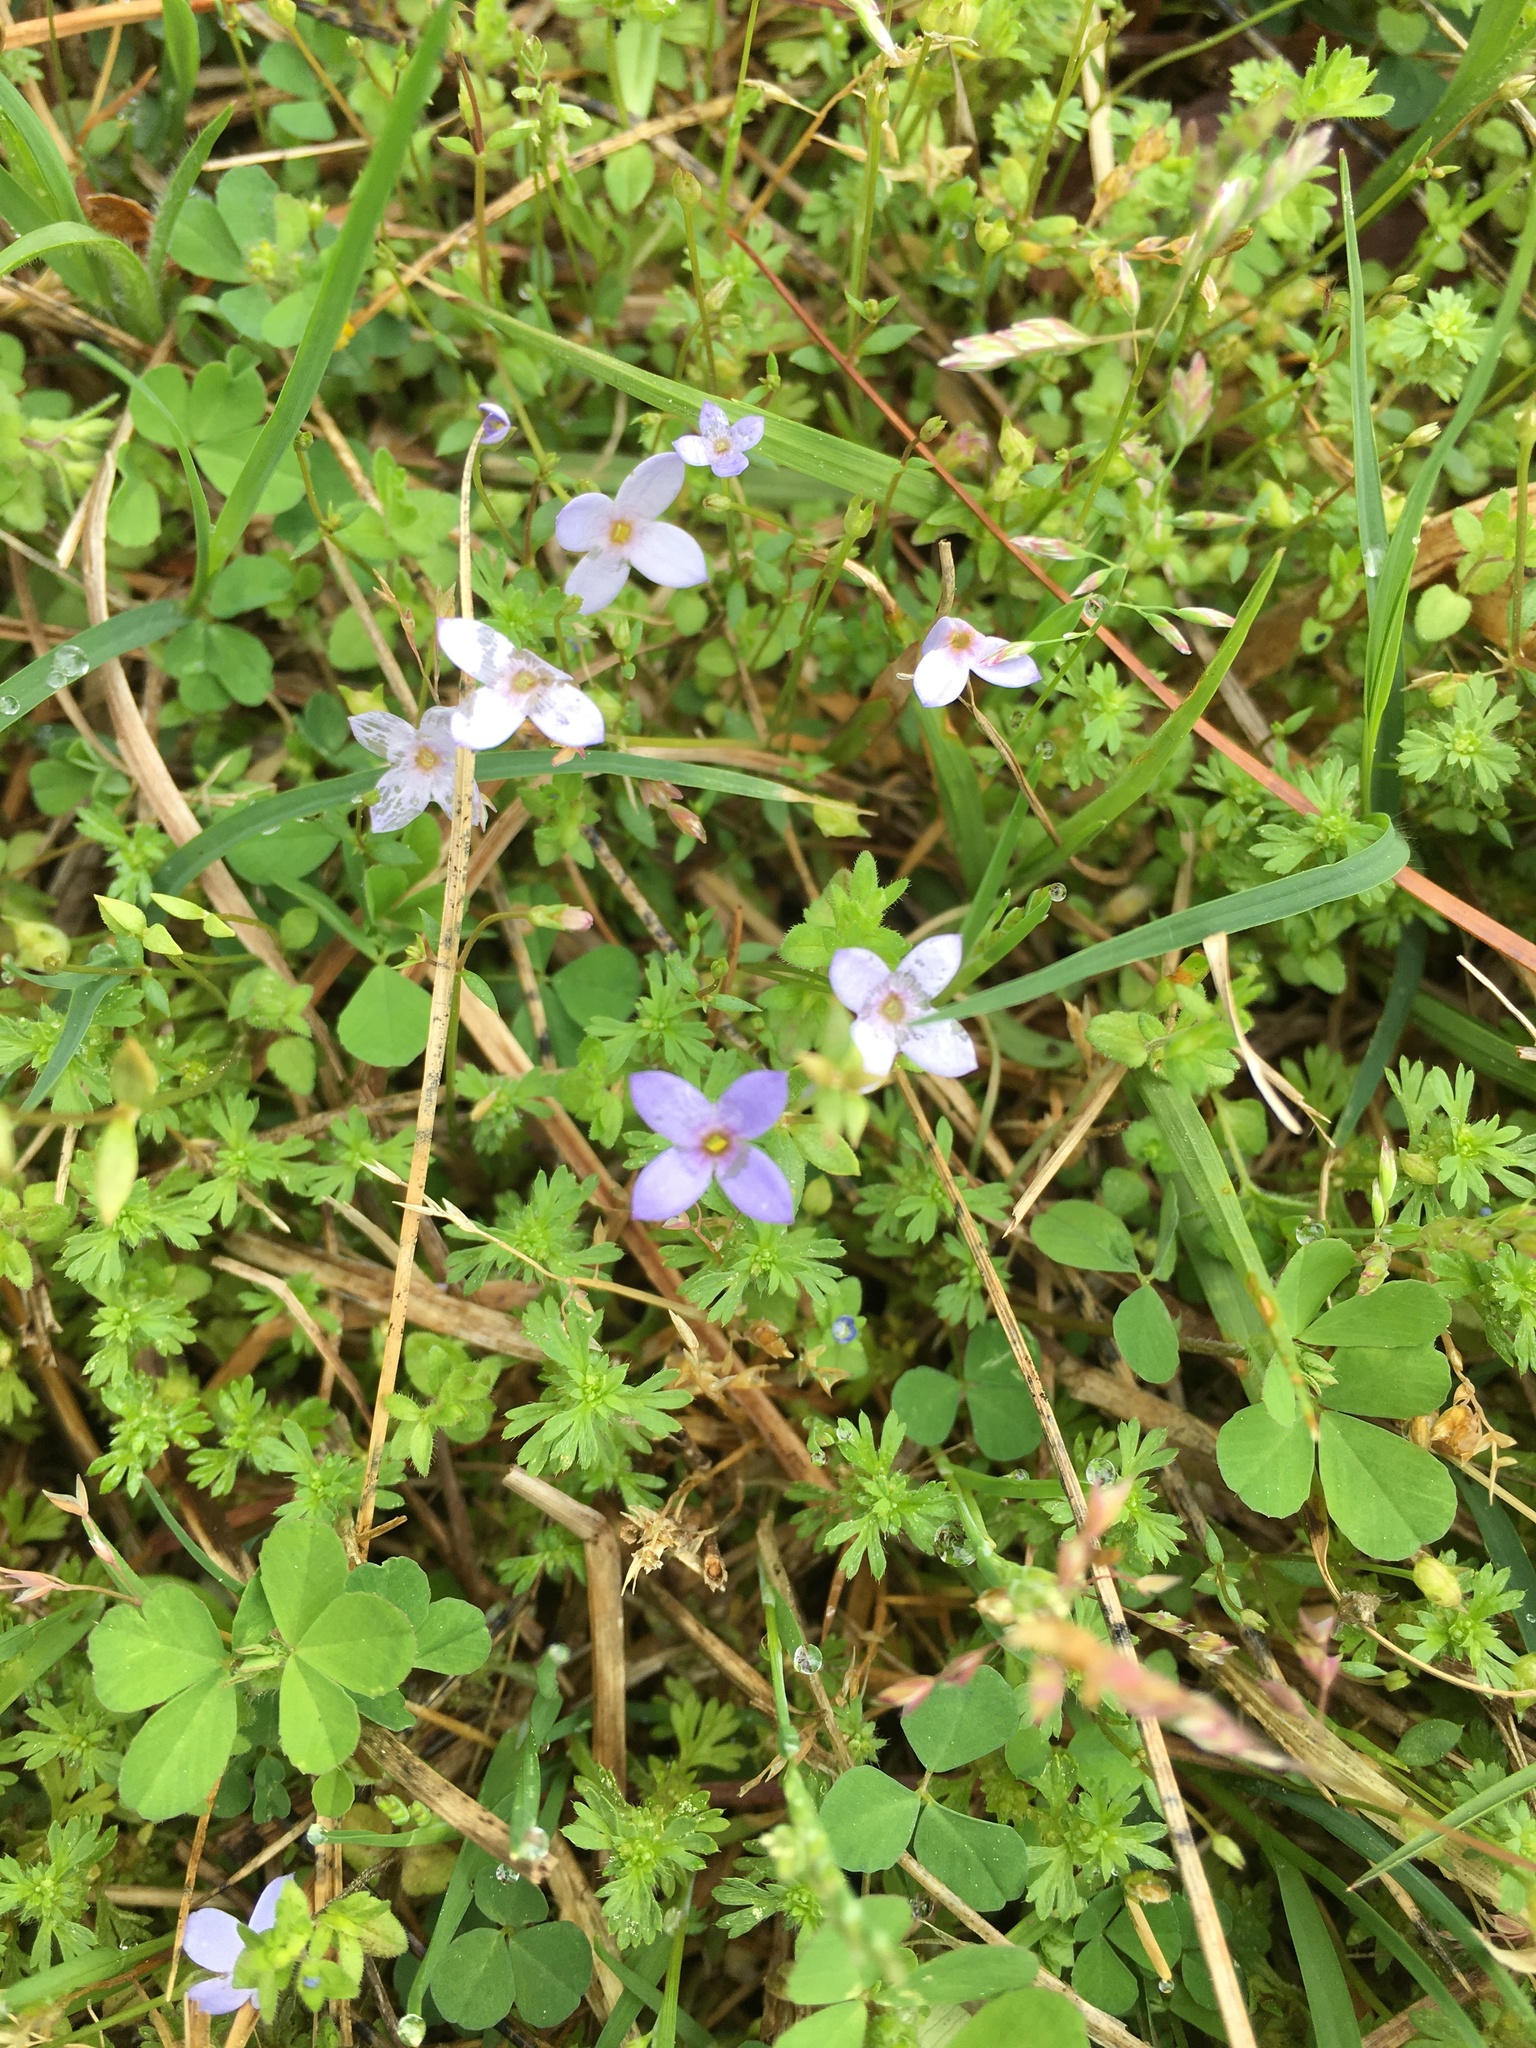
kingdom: Plantae
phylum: Tracheophyta
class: Magnoliopsida
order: Gentianales
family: Rubiaceae
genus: Houstonia
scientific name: Houstonia pusilla
